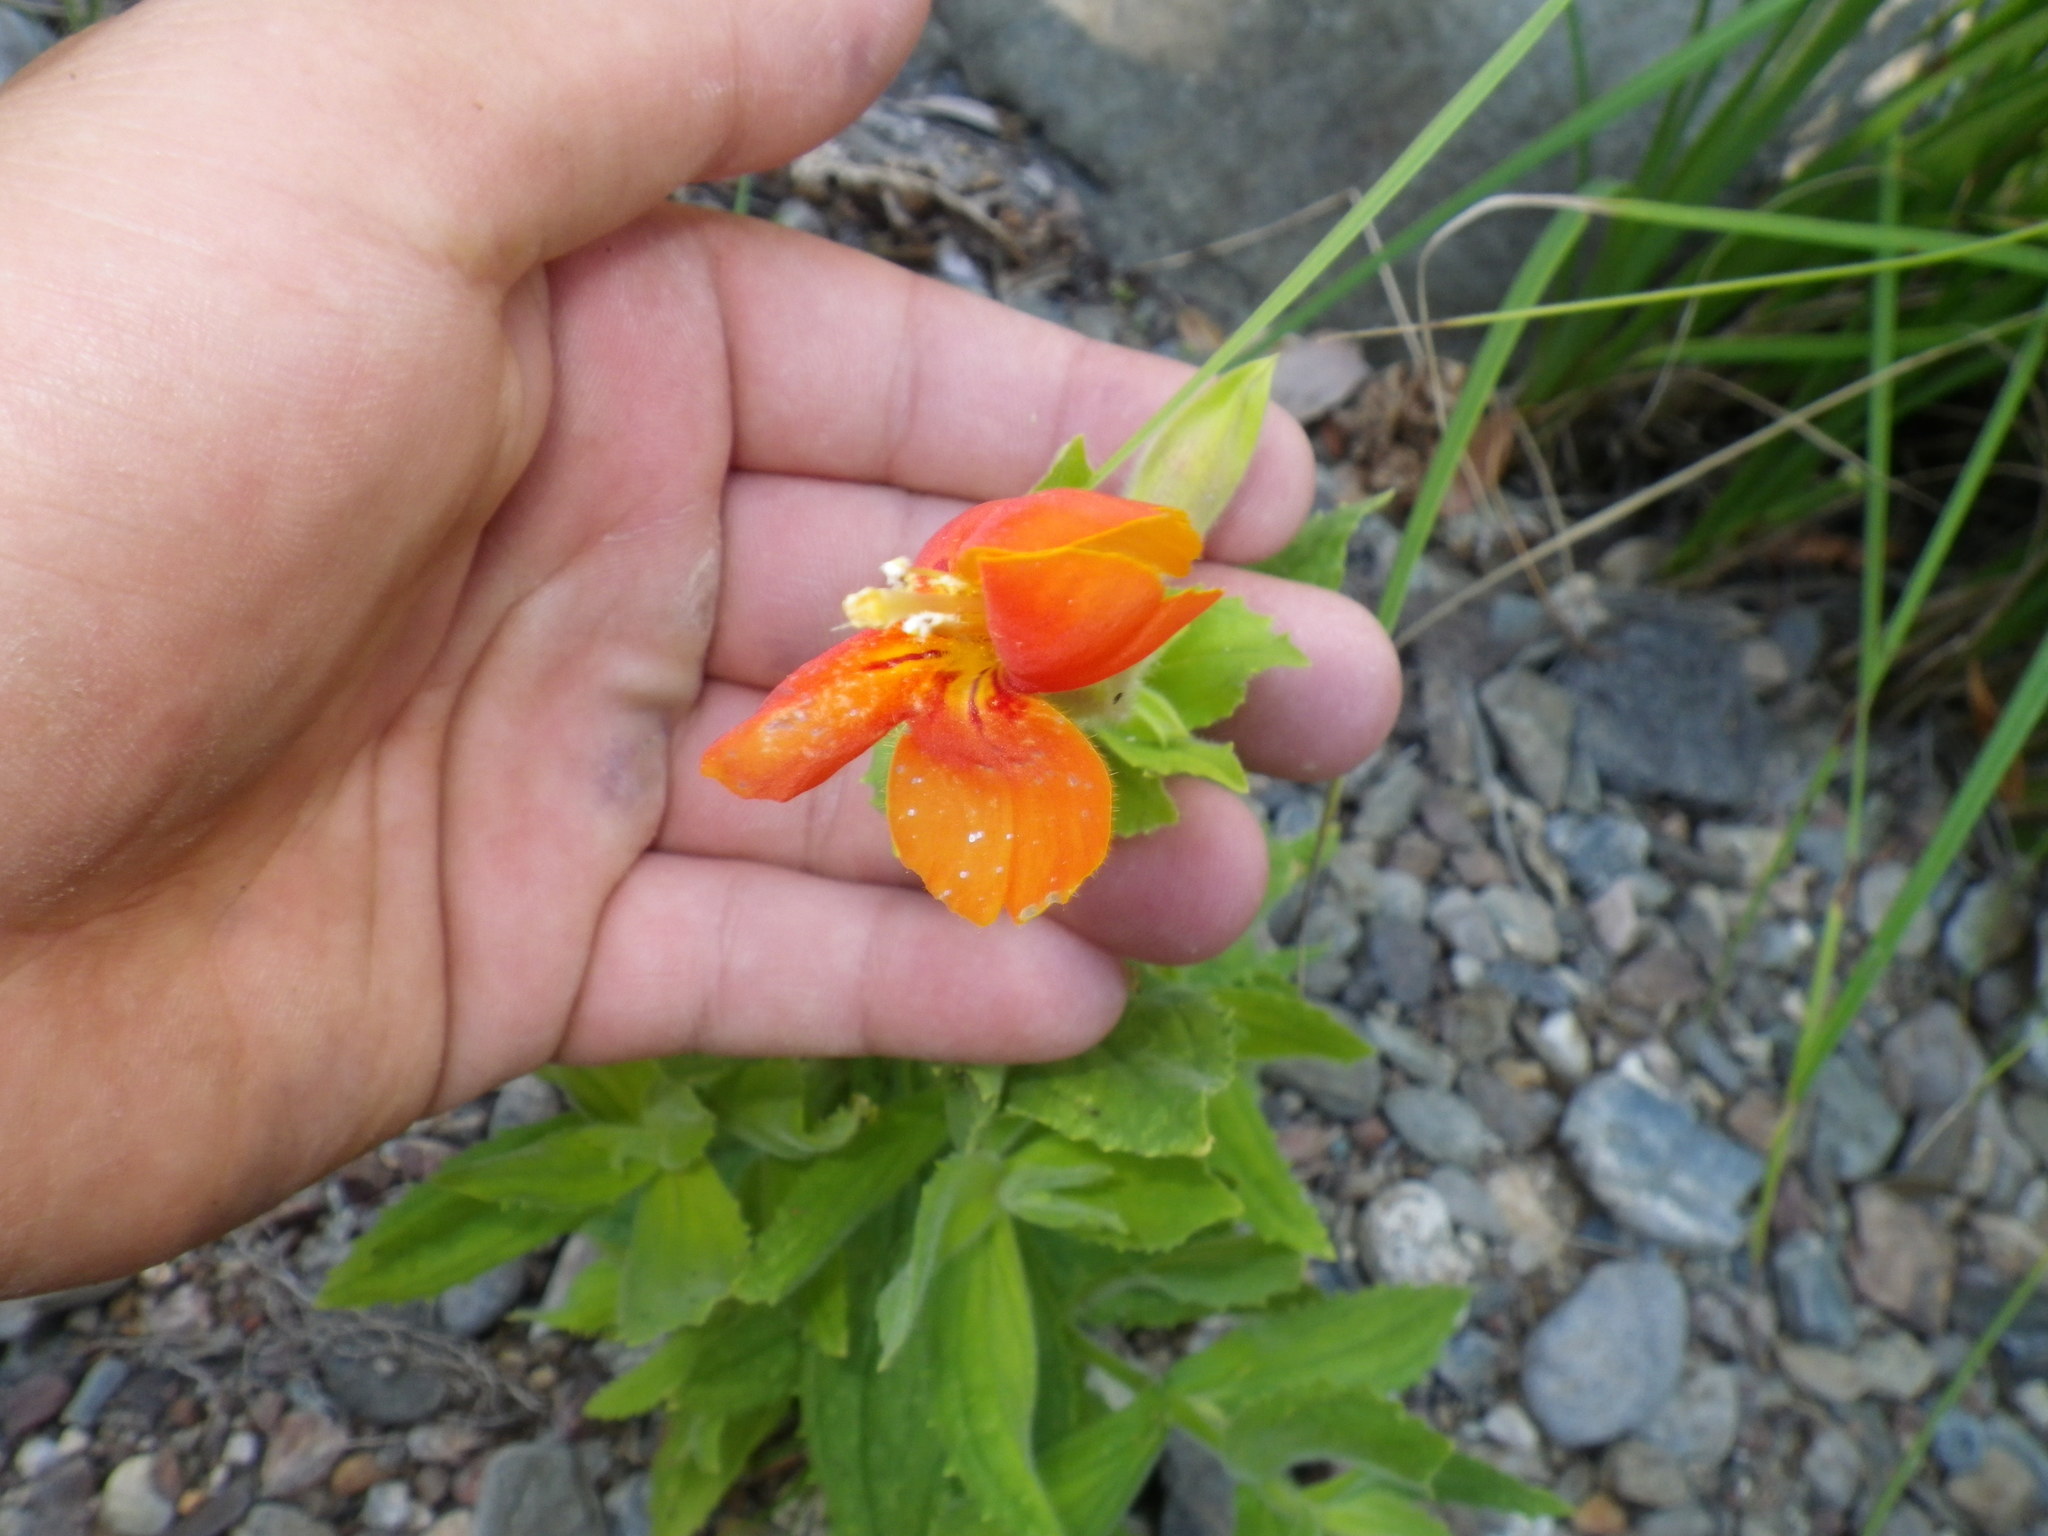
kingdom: Plantae
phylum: Tracheophyta
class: Magnoliopsida
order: Lamiales
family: Phrymaceae
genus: Erythranthe
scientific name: Erythranthe cardinalis
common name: Scarlet monkey-flower
